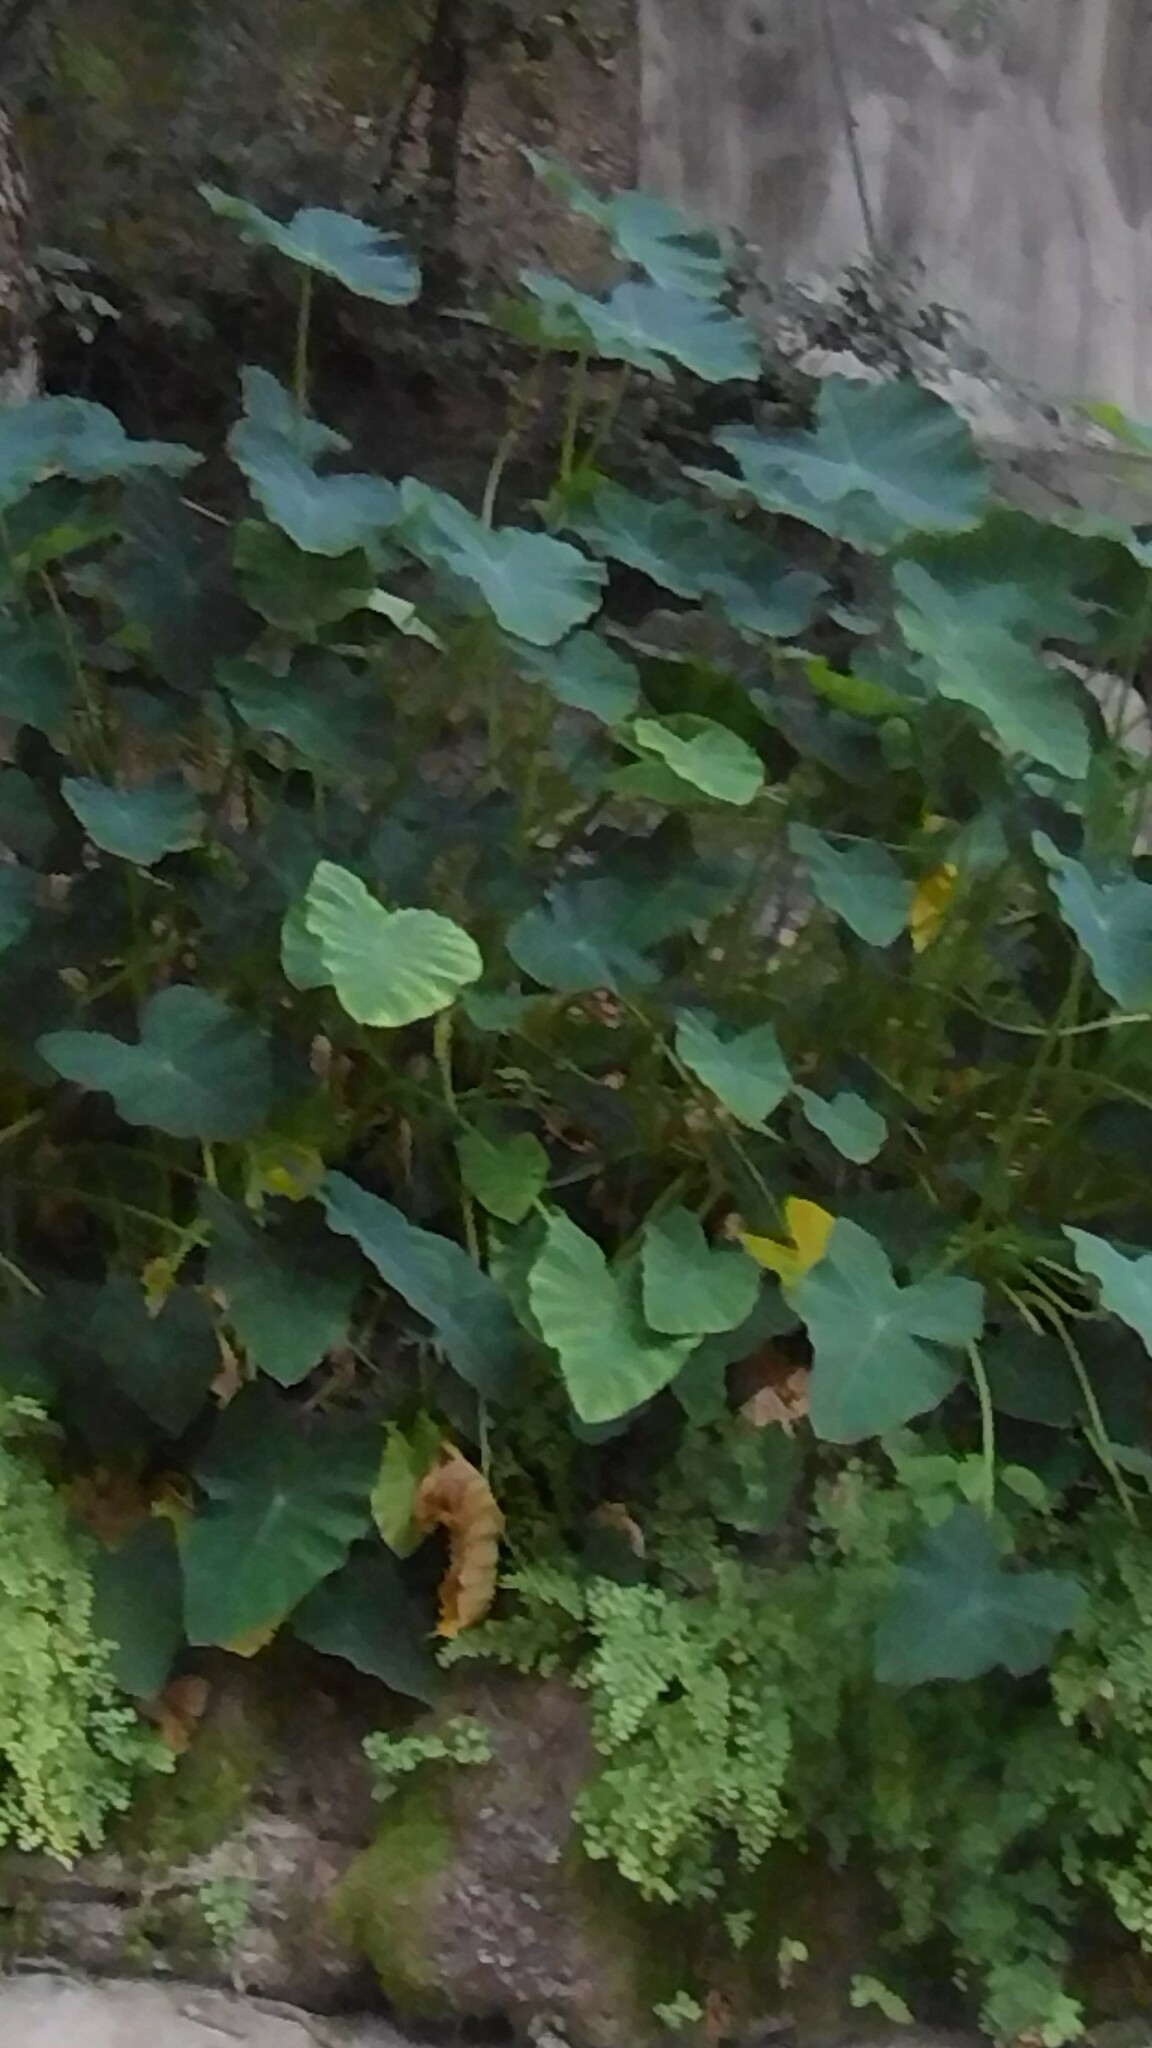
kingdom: Plantae
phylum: Tracheophyta
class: Liliopsida
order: Alismatales
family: Araceae
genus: Colocasia
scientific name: Colocasia esculenta
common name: Taro
